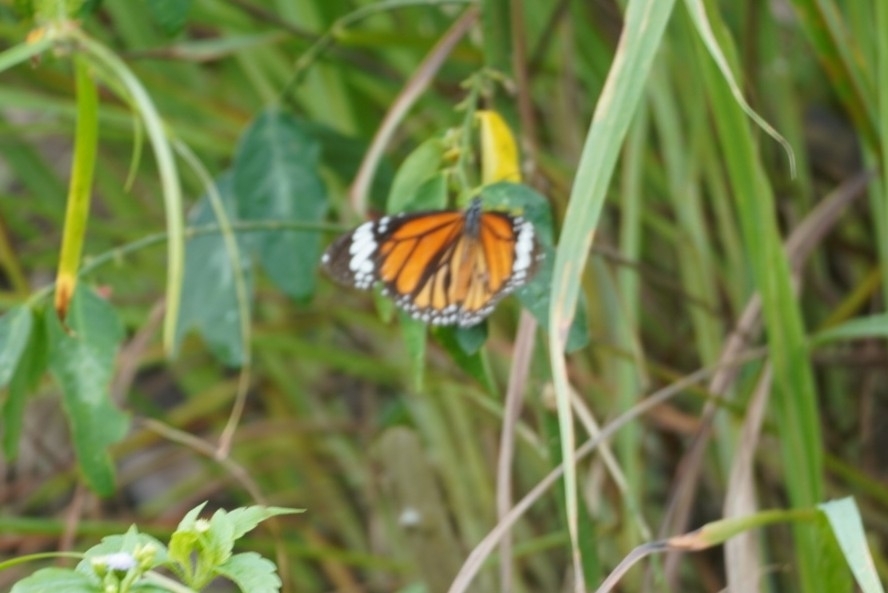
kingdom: Animalia
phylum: Arthropoda
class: Insecta
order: Lepidoptera
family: Nymphalidae
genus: Danaus
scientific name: Danaus genutia
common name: Common tiger butterfly
